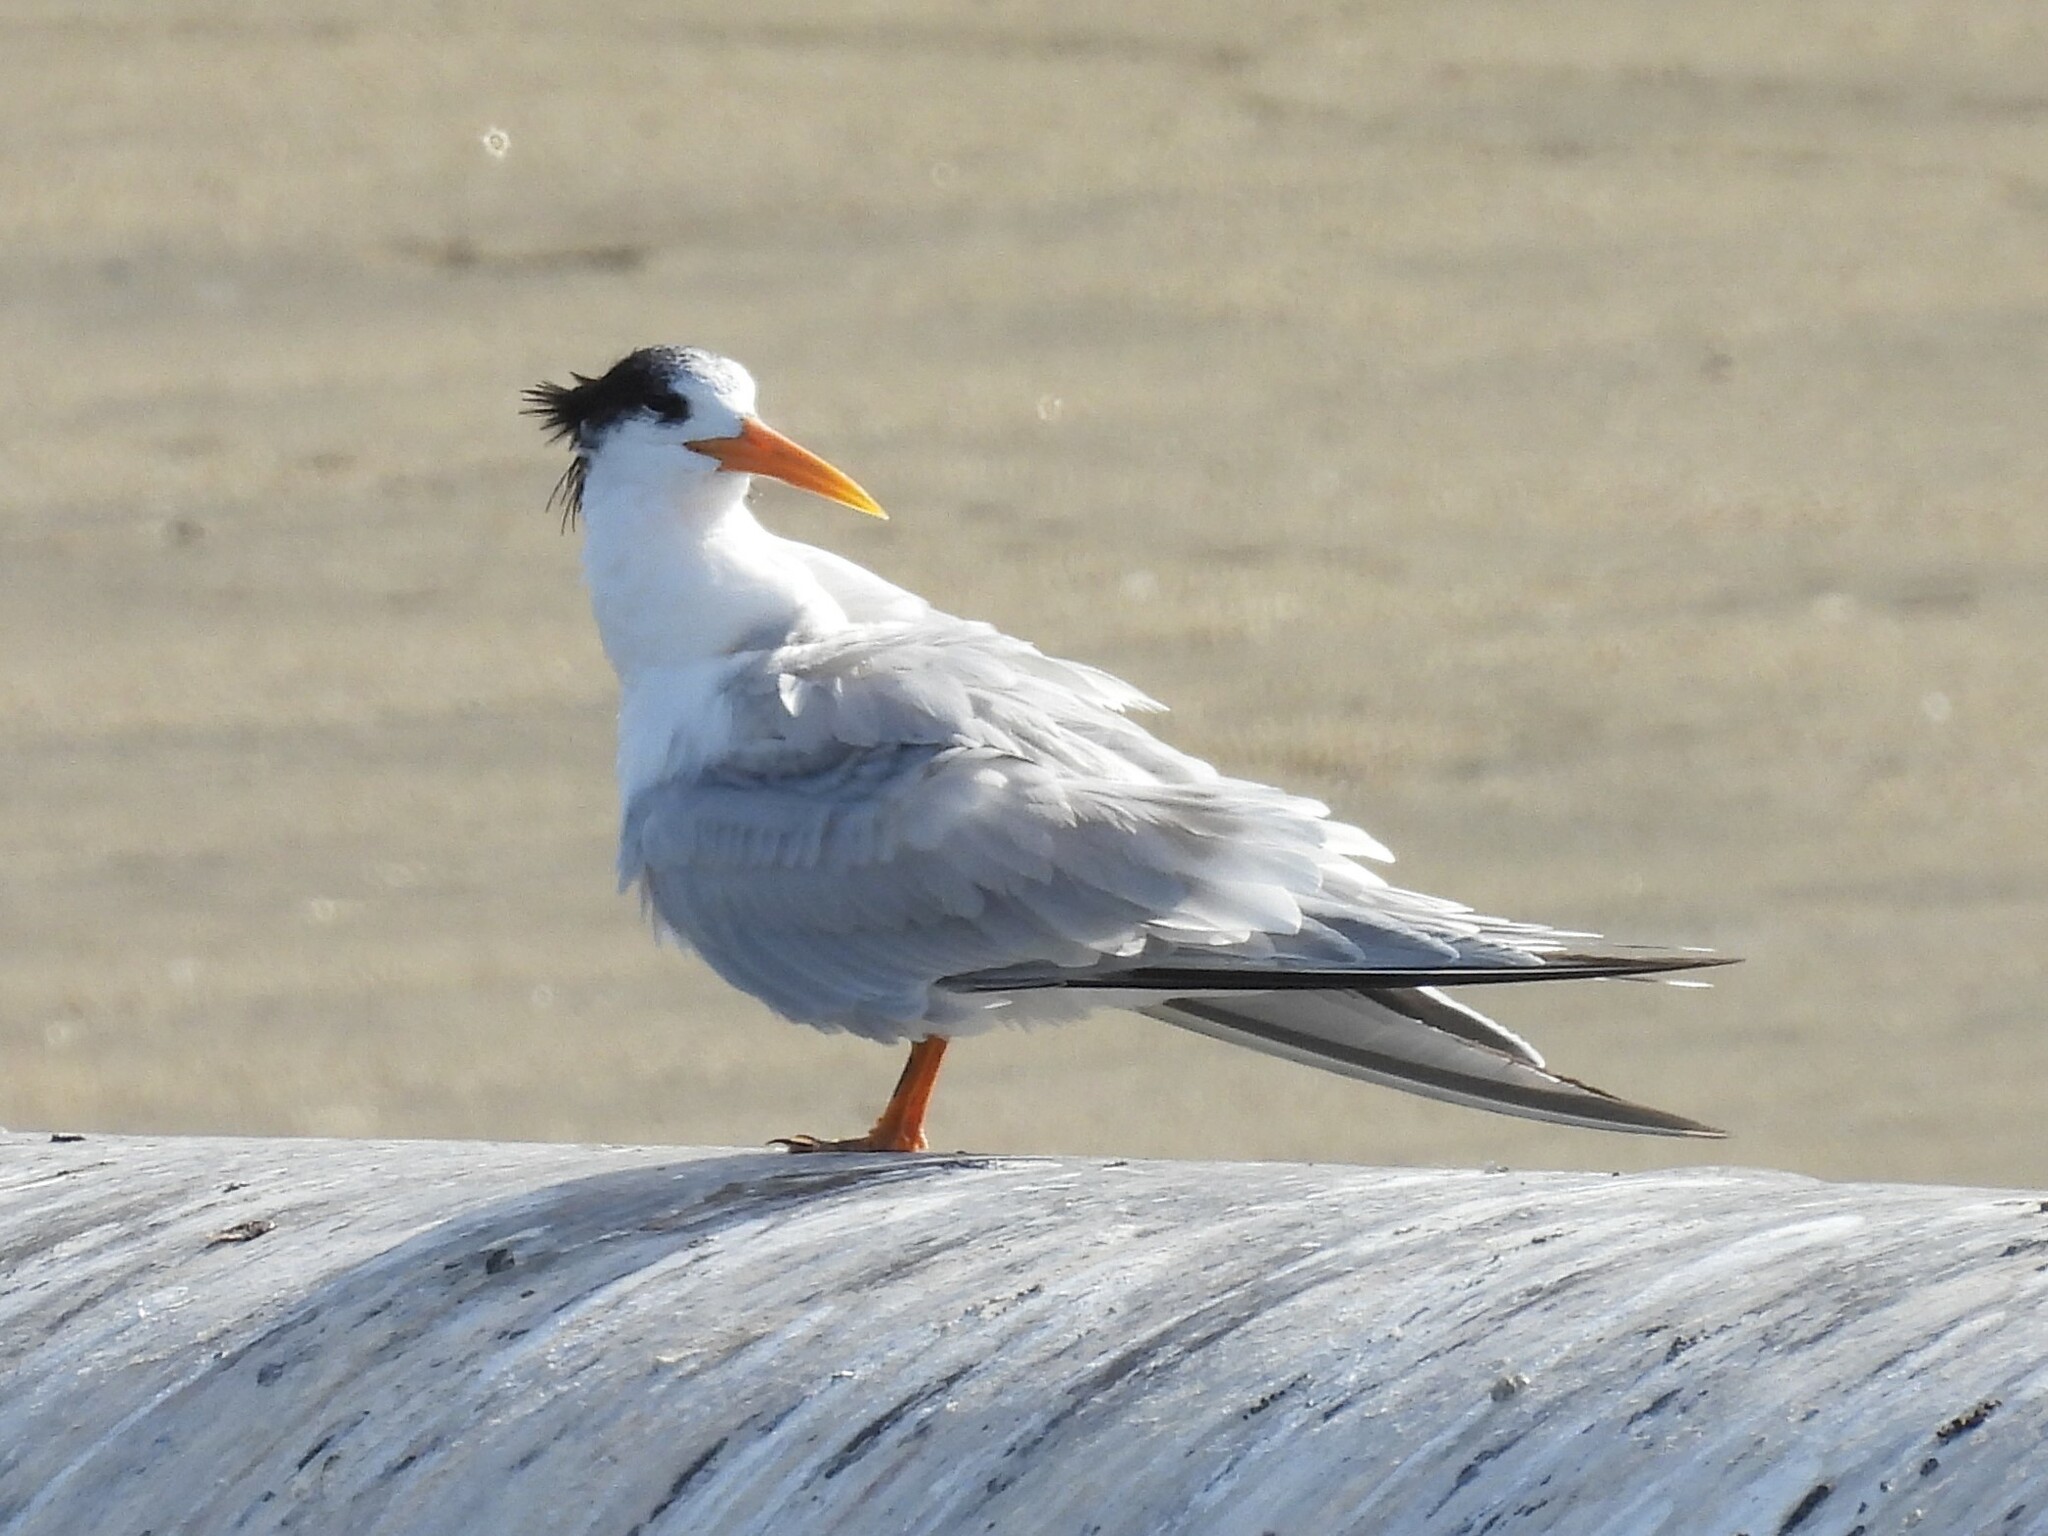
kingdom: Animalia
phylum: Chordata
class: Aves
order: Charadriiformes
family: Laridae
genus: Thalasseus
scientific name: Thalasseus elegans
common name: Elegant tern
